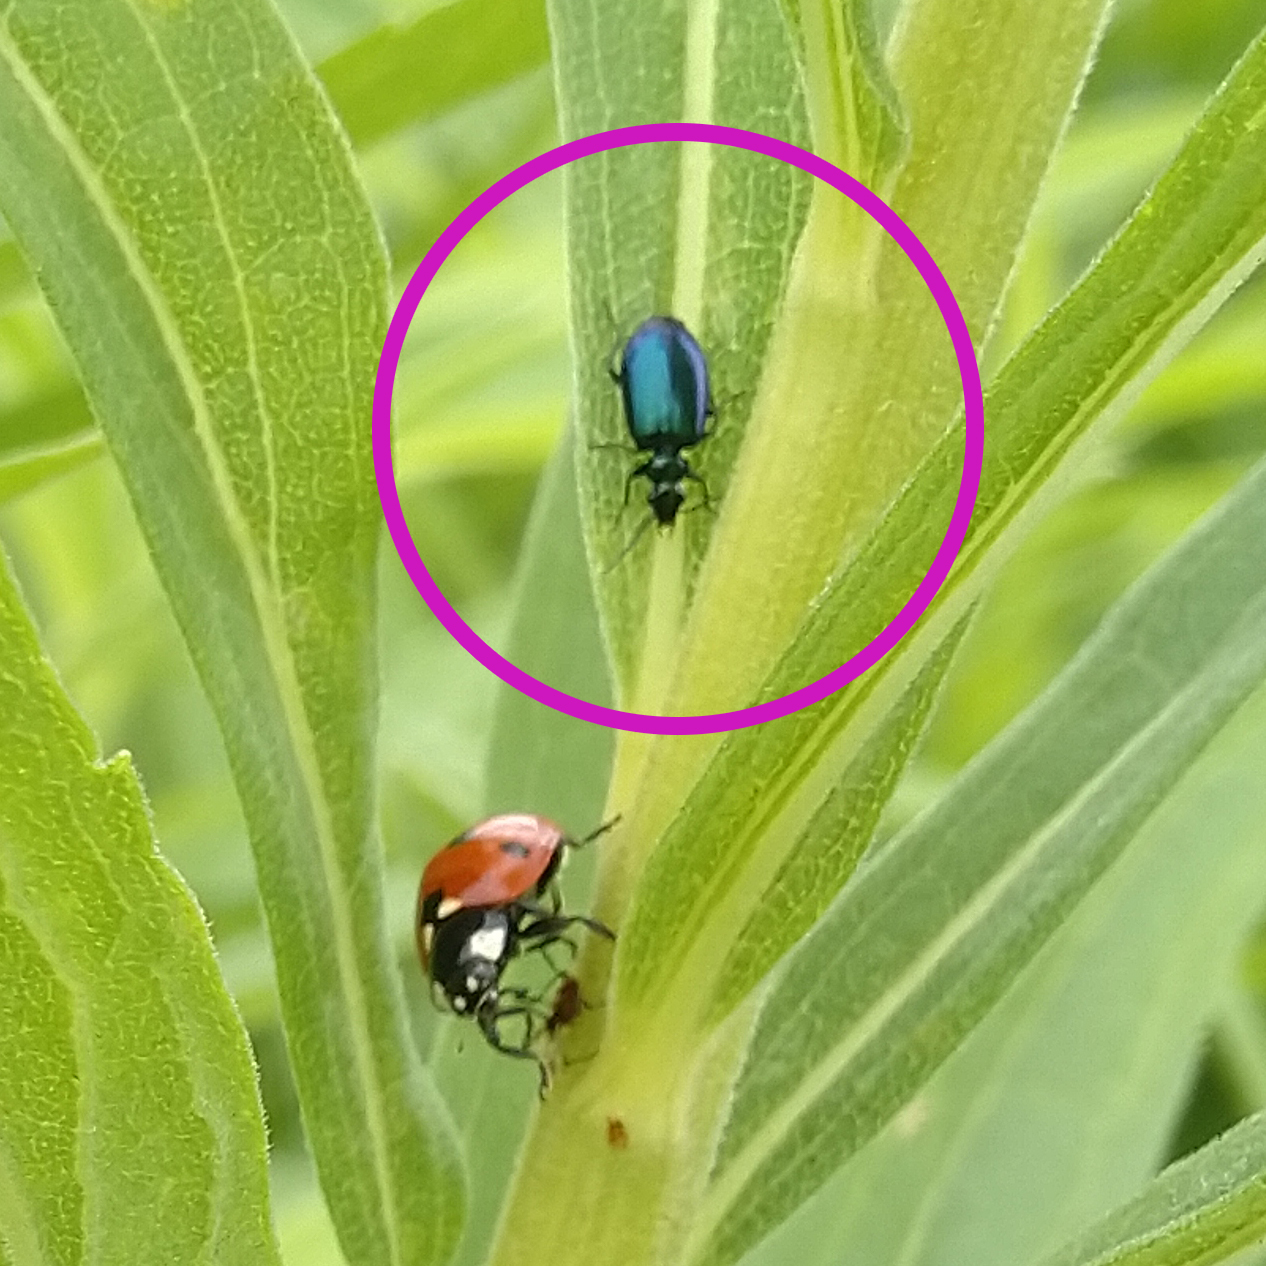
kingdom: Animalia
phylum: Arthropoda
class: Insecta
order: Coleoptera
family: Carabidae
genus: Lebia
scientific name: Lebia viridis
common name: Flower lebia beetle
